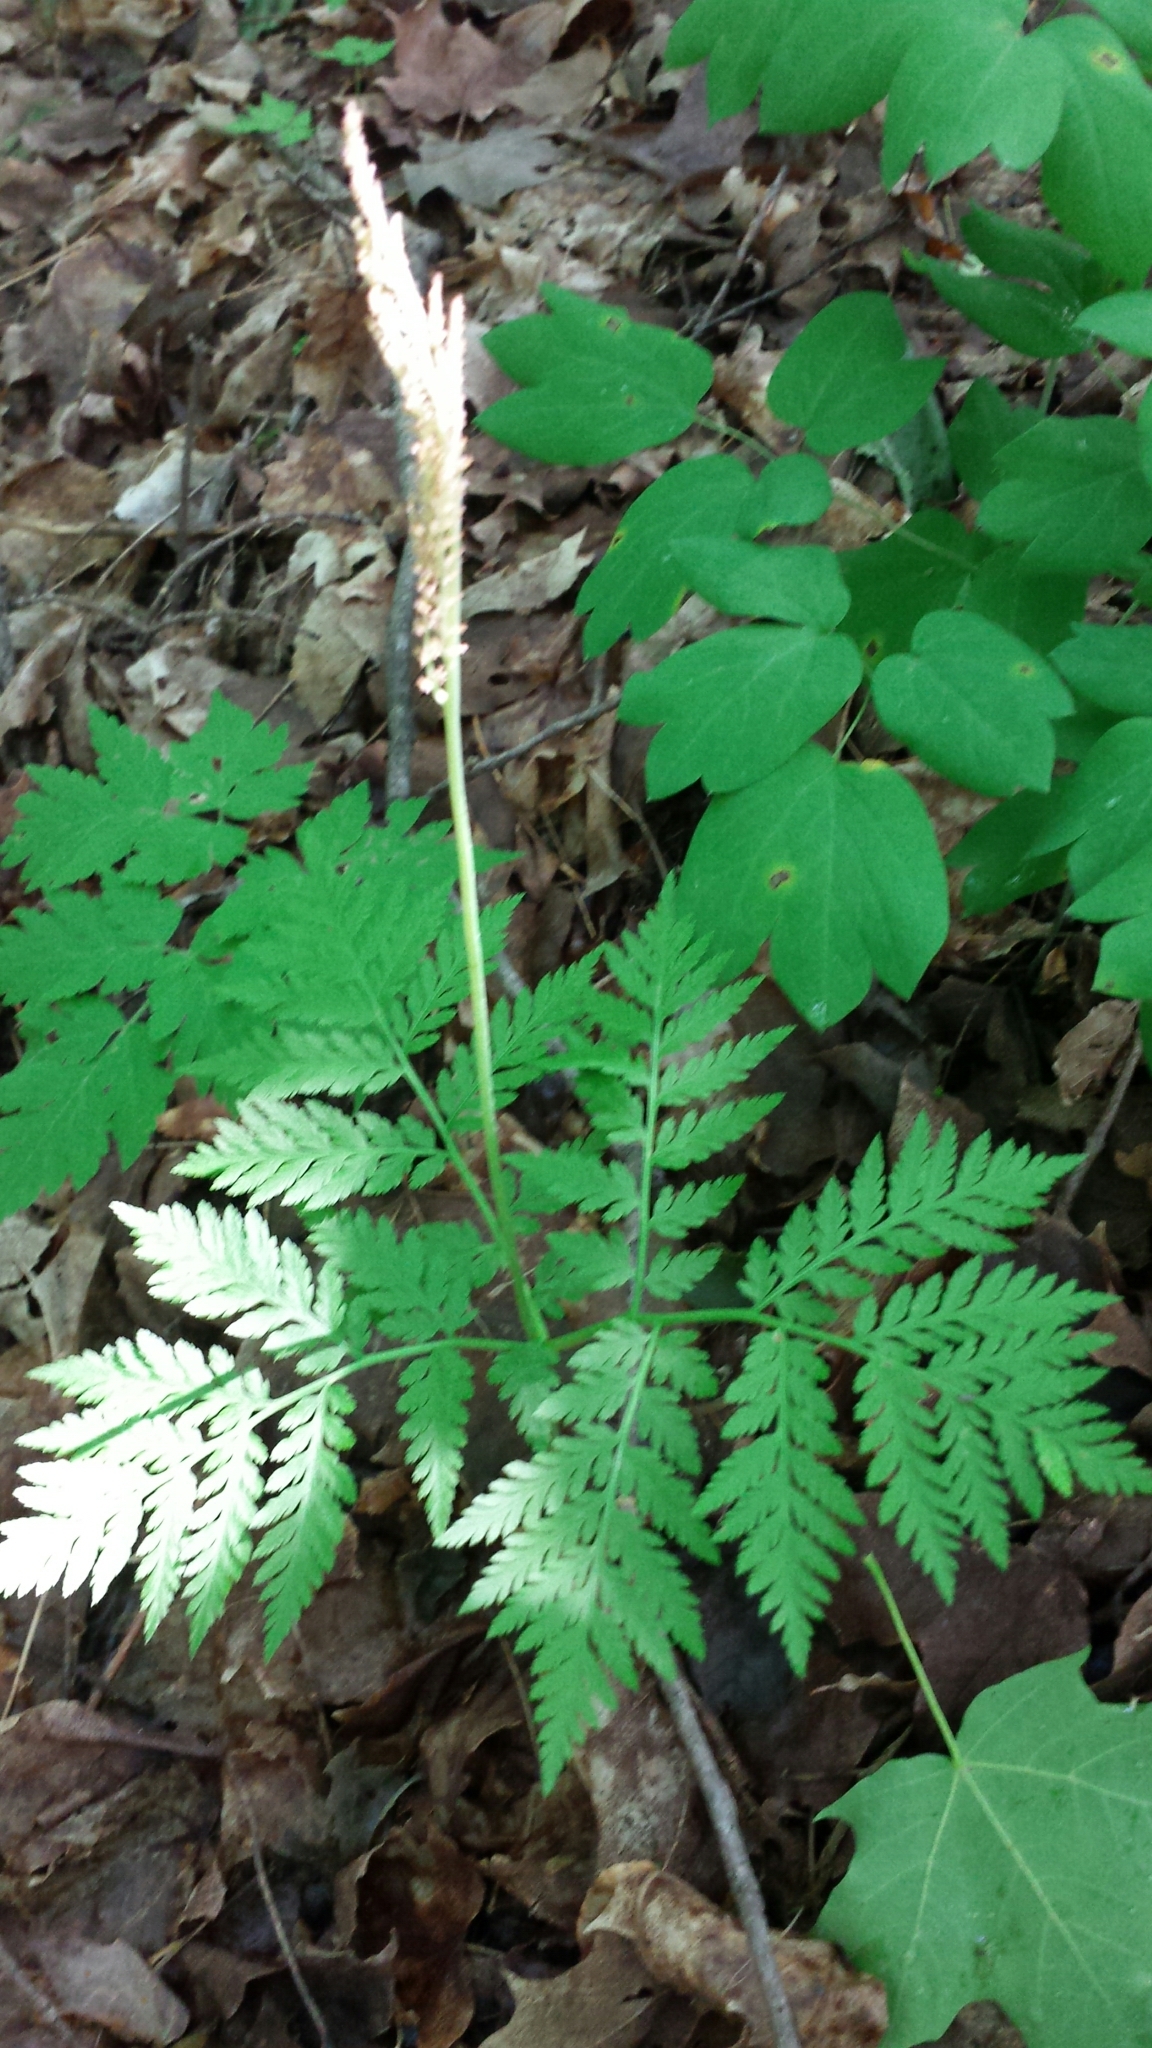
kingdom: Plantae
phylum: Tracheophyta
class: Polypodiopsida
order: Ophioglossales
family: Ophioglossaceae
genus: Botrypus
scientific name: Botrypus virginianus
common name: Common grapefern
